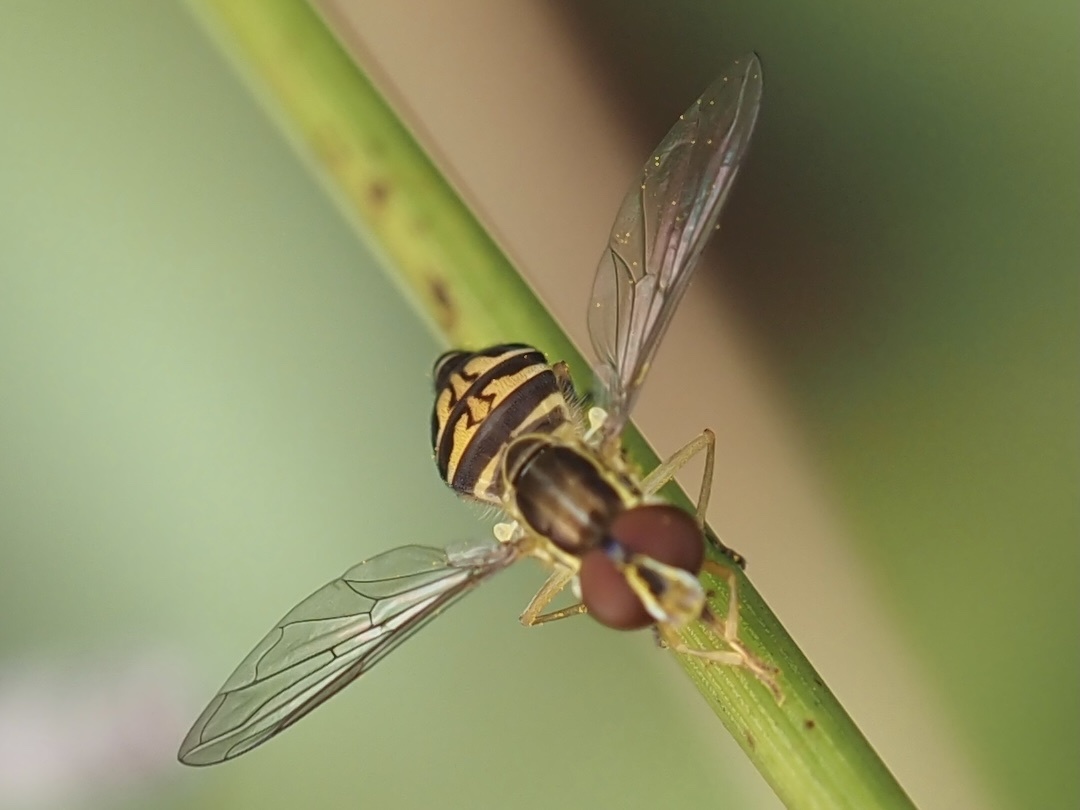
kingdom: Animalia
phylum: Arthropoda
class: Insecta
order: Diptera
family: Syrphidae
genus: Toxomerus
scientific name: Toxomerus occidentalis
